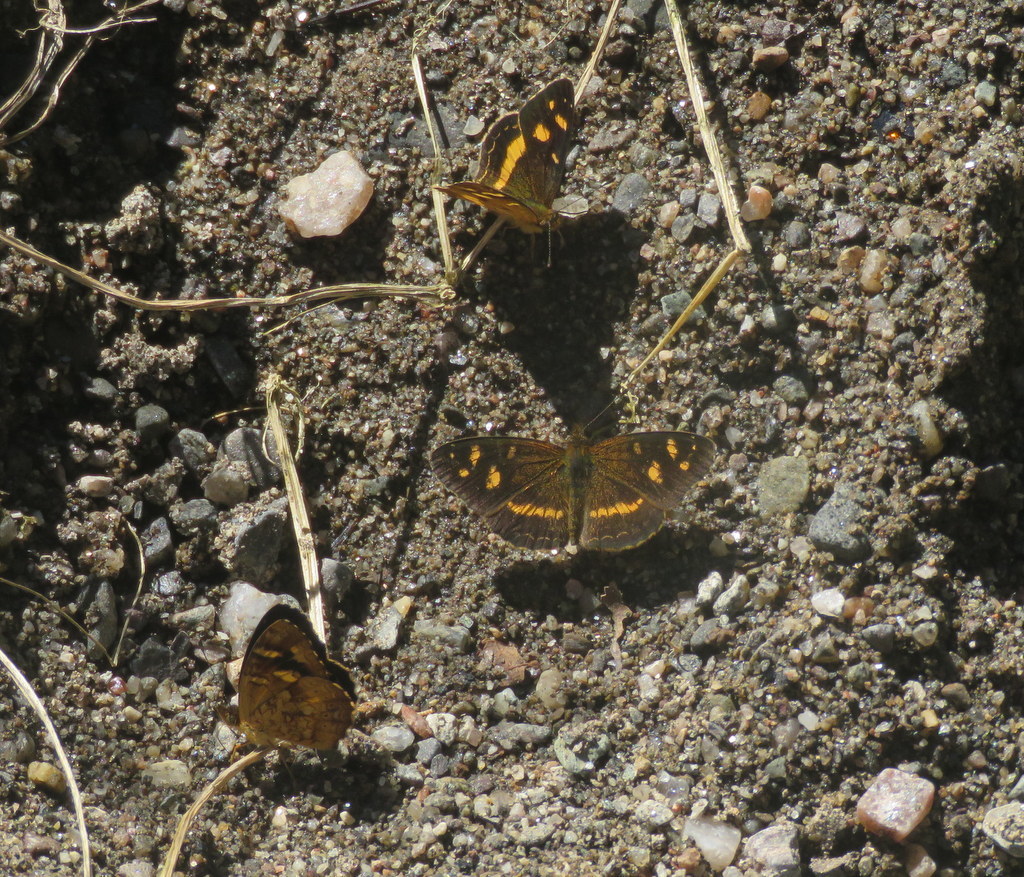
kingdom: Animalia
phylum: Arthropoda
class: Insecta
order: Lepidoptera
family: Nymphalidae
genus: Telenassa
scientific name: Telenassa berenice
